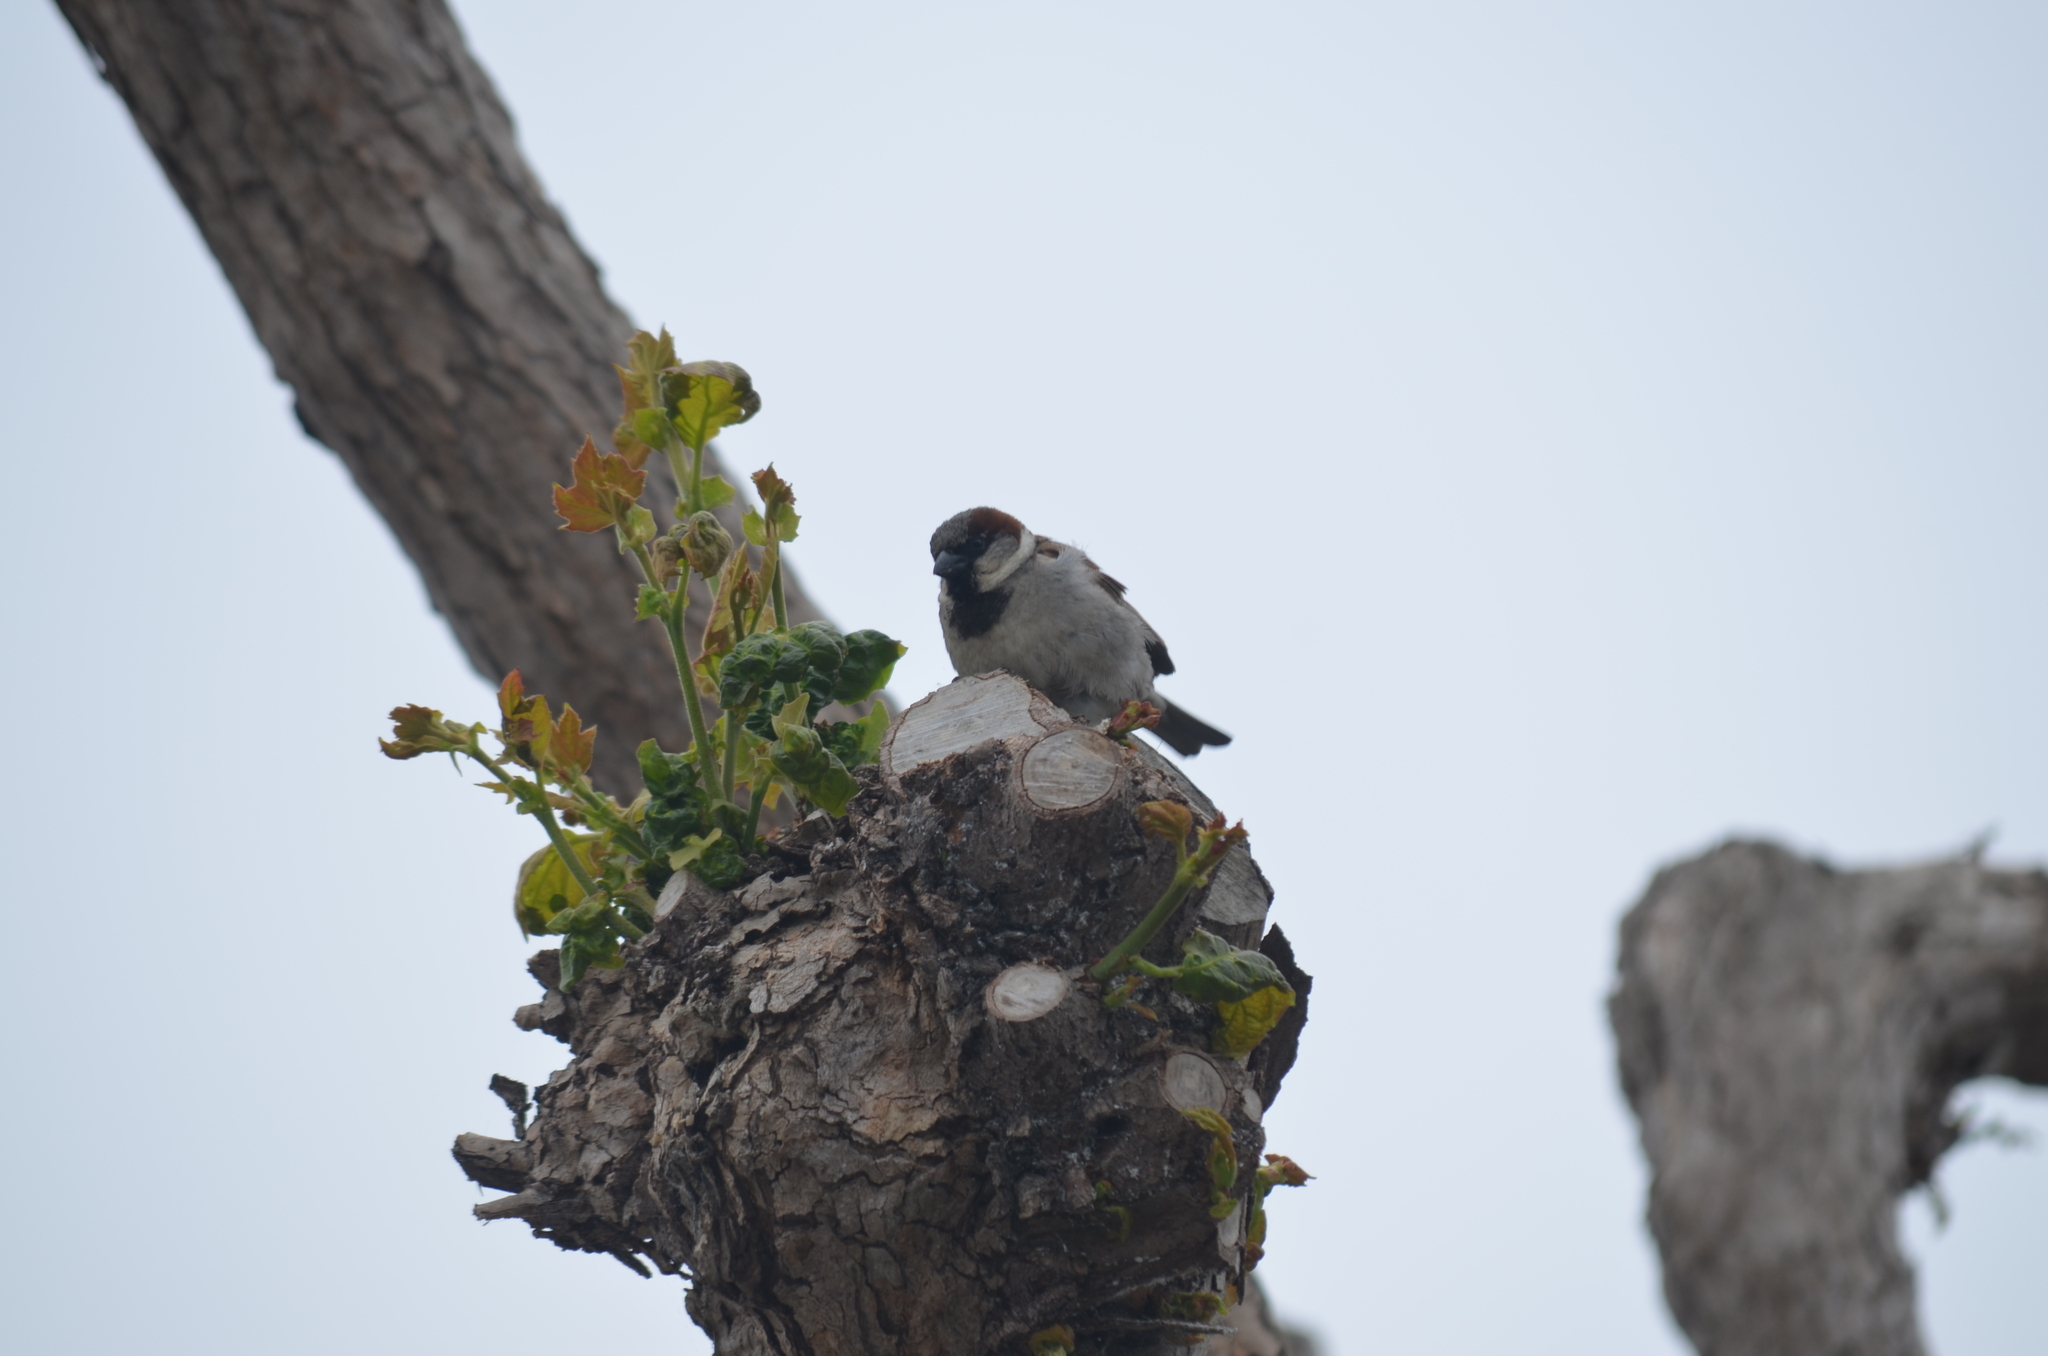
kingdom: Animalia
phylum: Chordata
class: Aves
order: Passeriformes
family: Passeridae
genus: Passer
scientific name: Passer domesticus
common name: House sparrow
